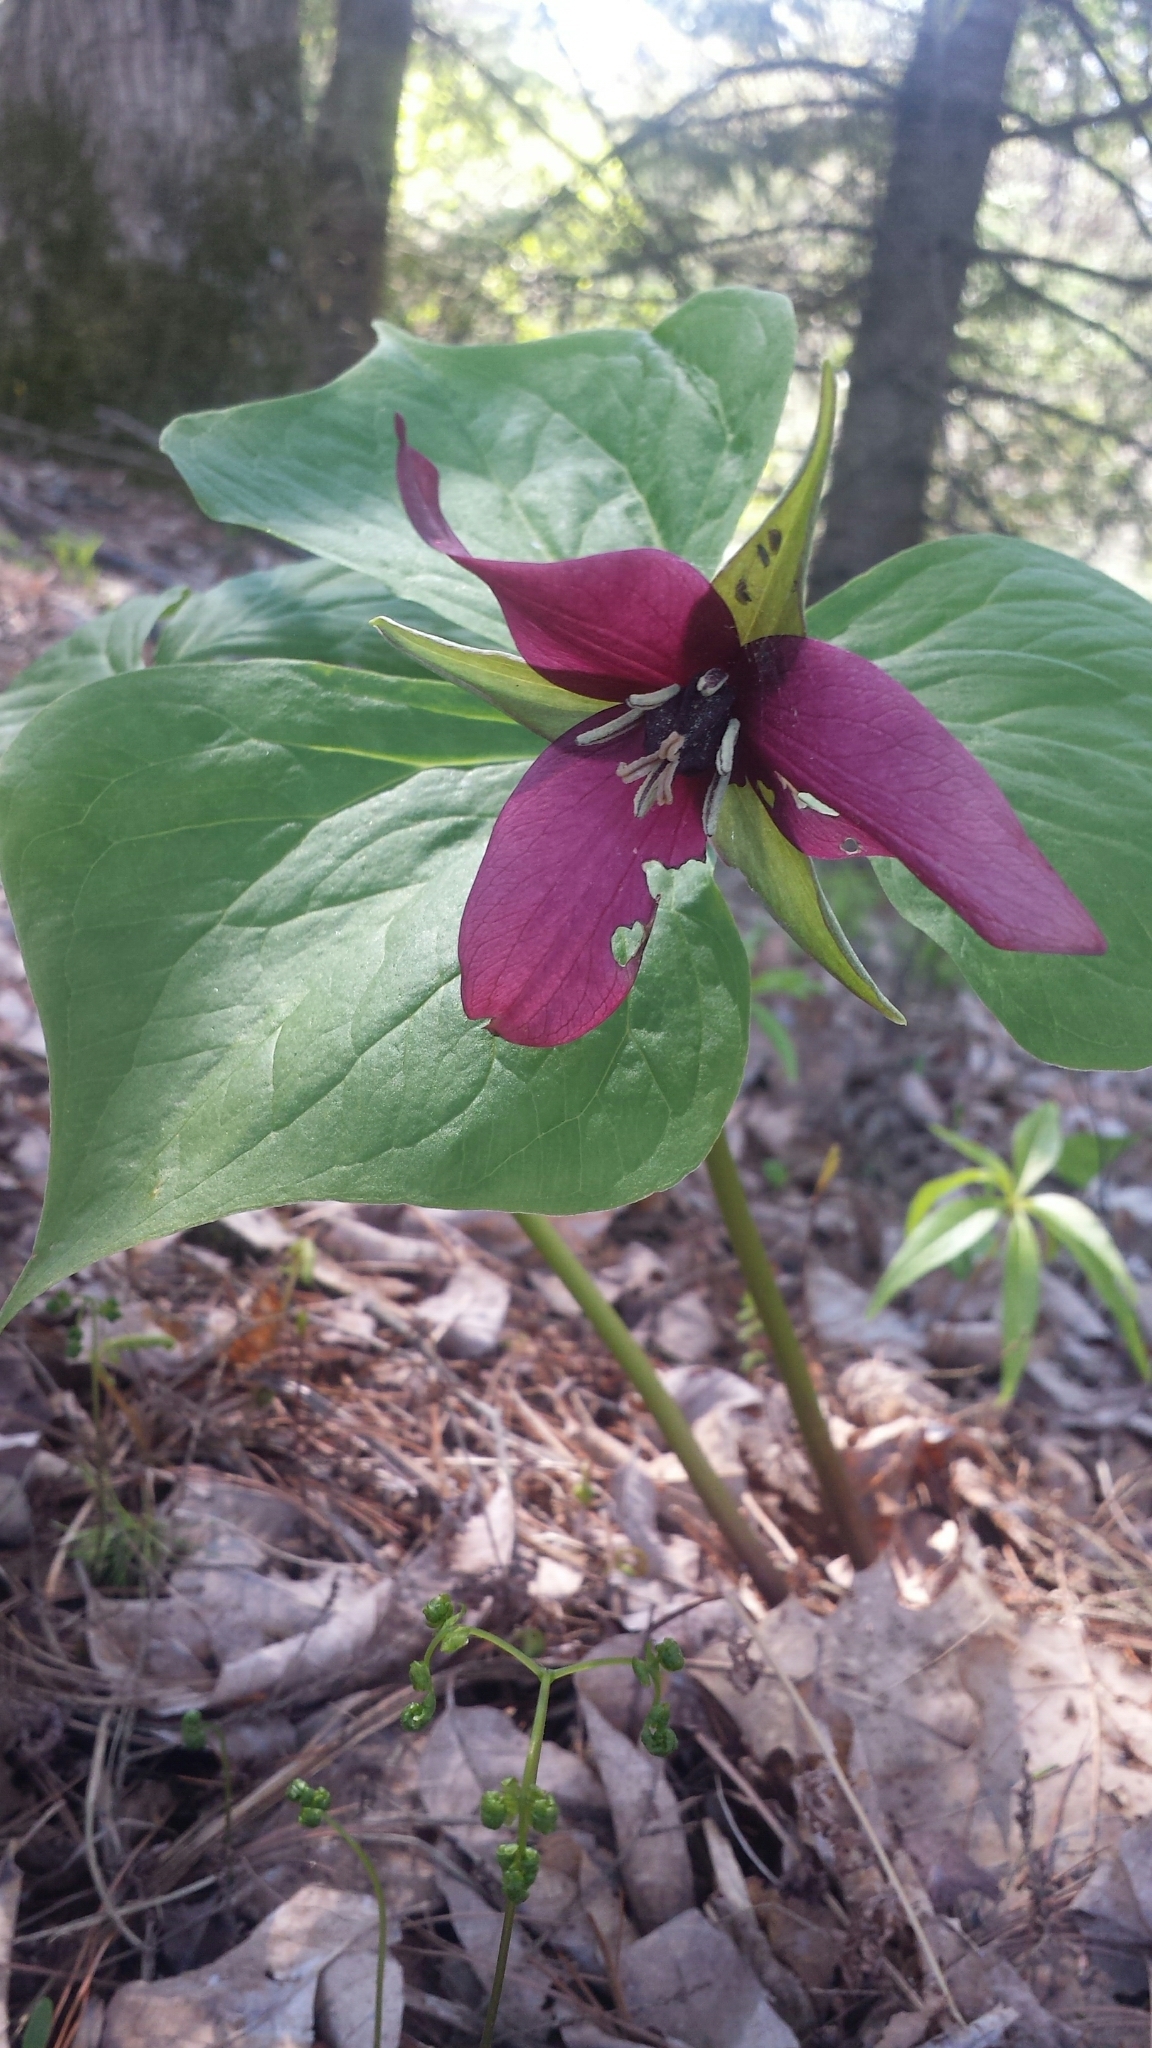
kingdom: Plantae
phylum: Tracheophyta
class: Liliopsida
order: Liliales
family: Melanthiaceae
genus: Trillium
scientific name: Trillium erectum
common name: Purple trillium
